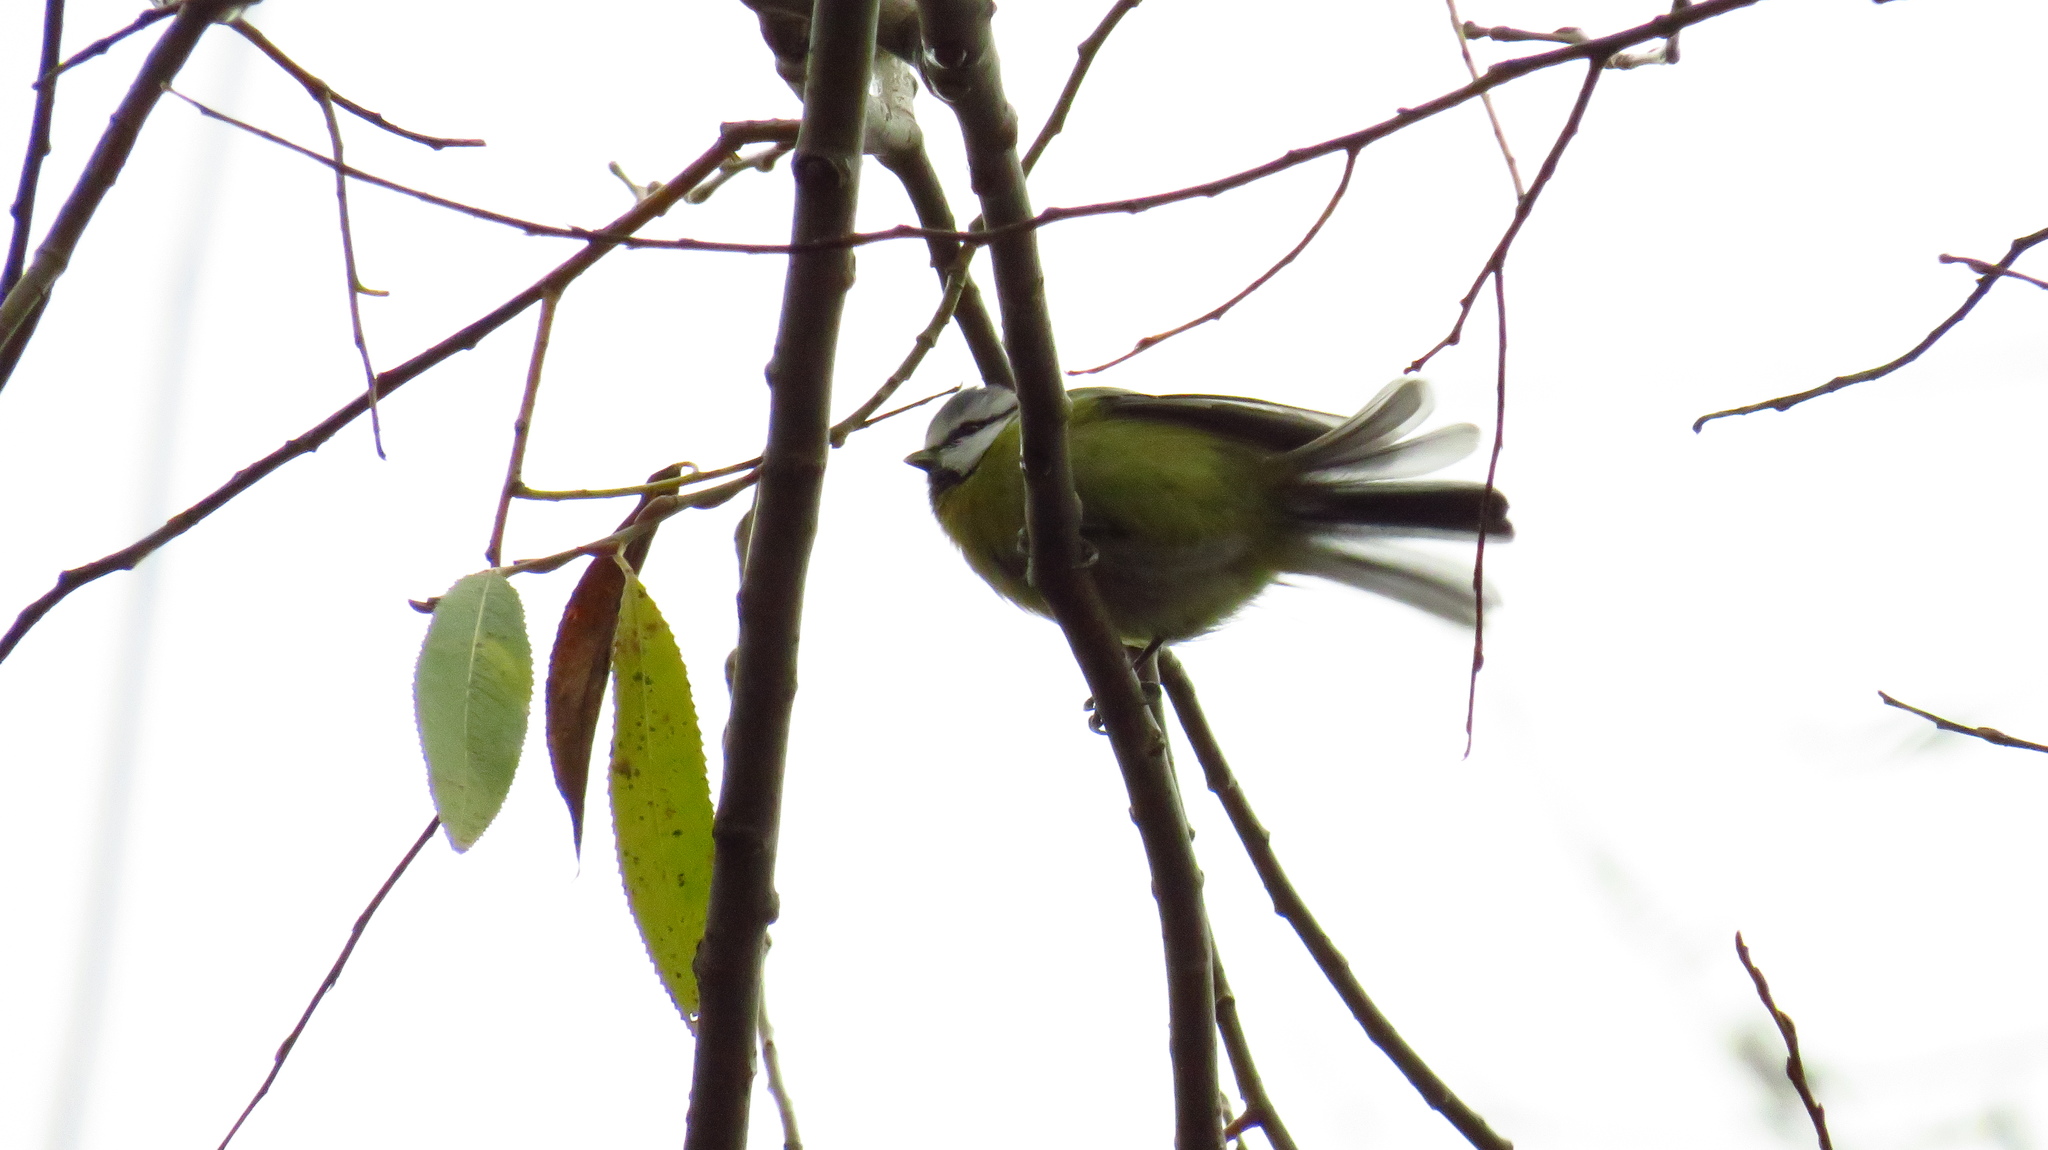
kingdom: Animalia
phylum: Chordata
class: Aves
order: Passeriformes
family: Paridae
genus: Cyanistes
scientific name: Cyanistes caeruleus
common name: Eurasian blue tit
